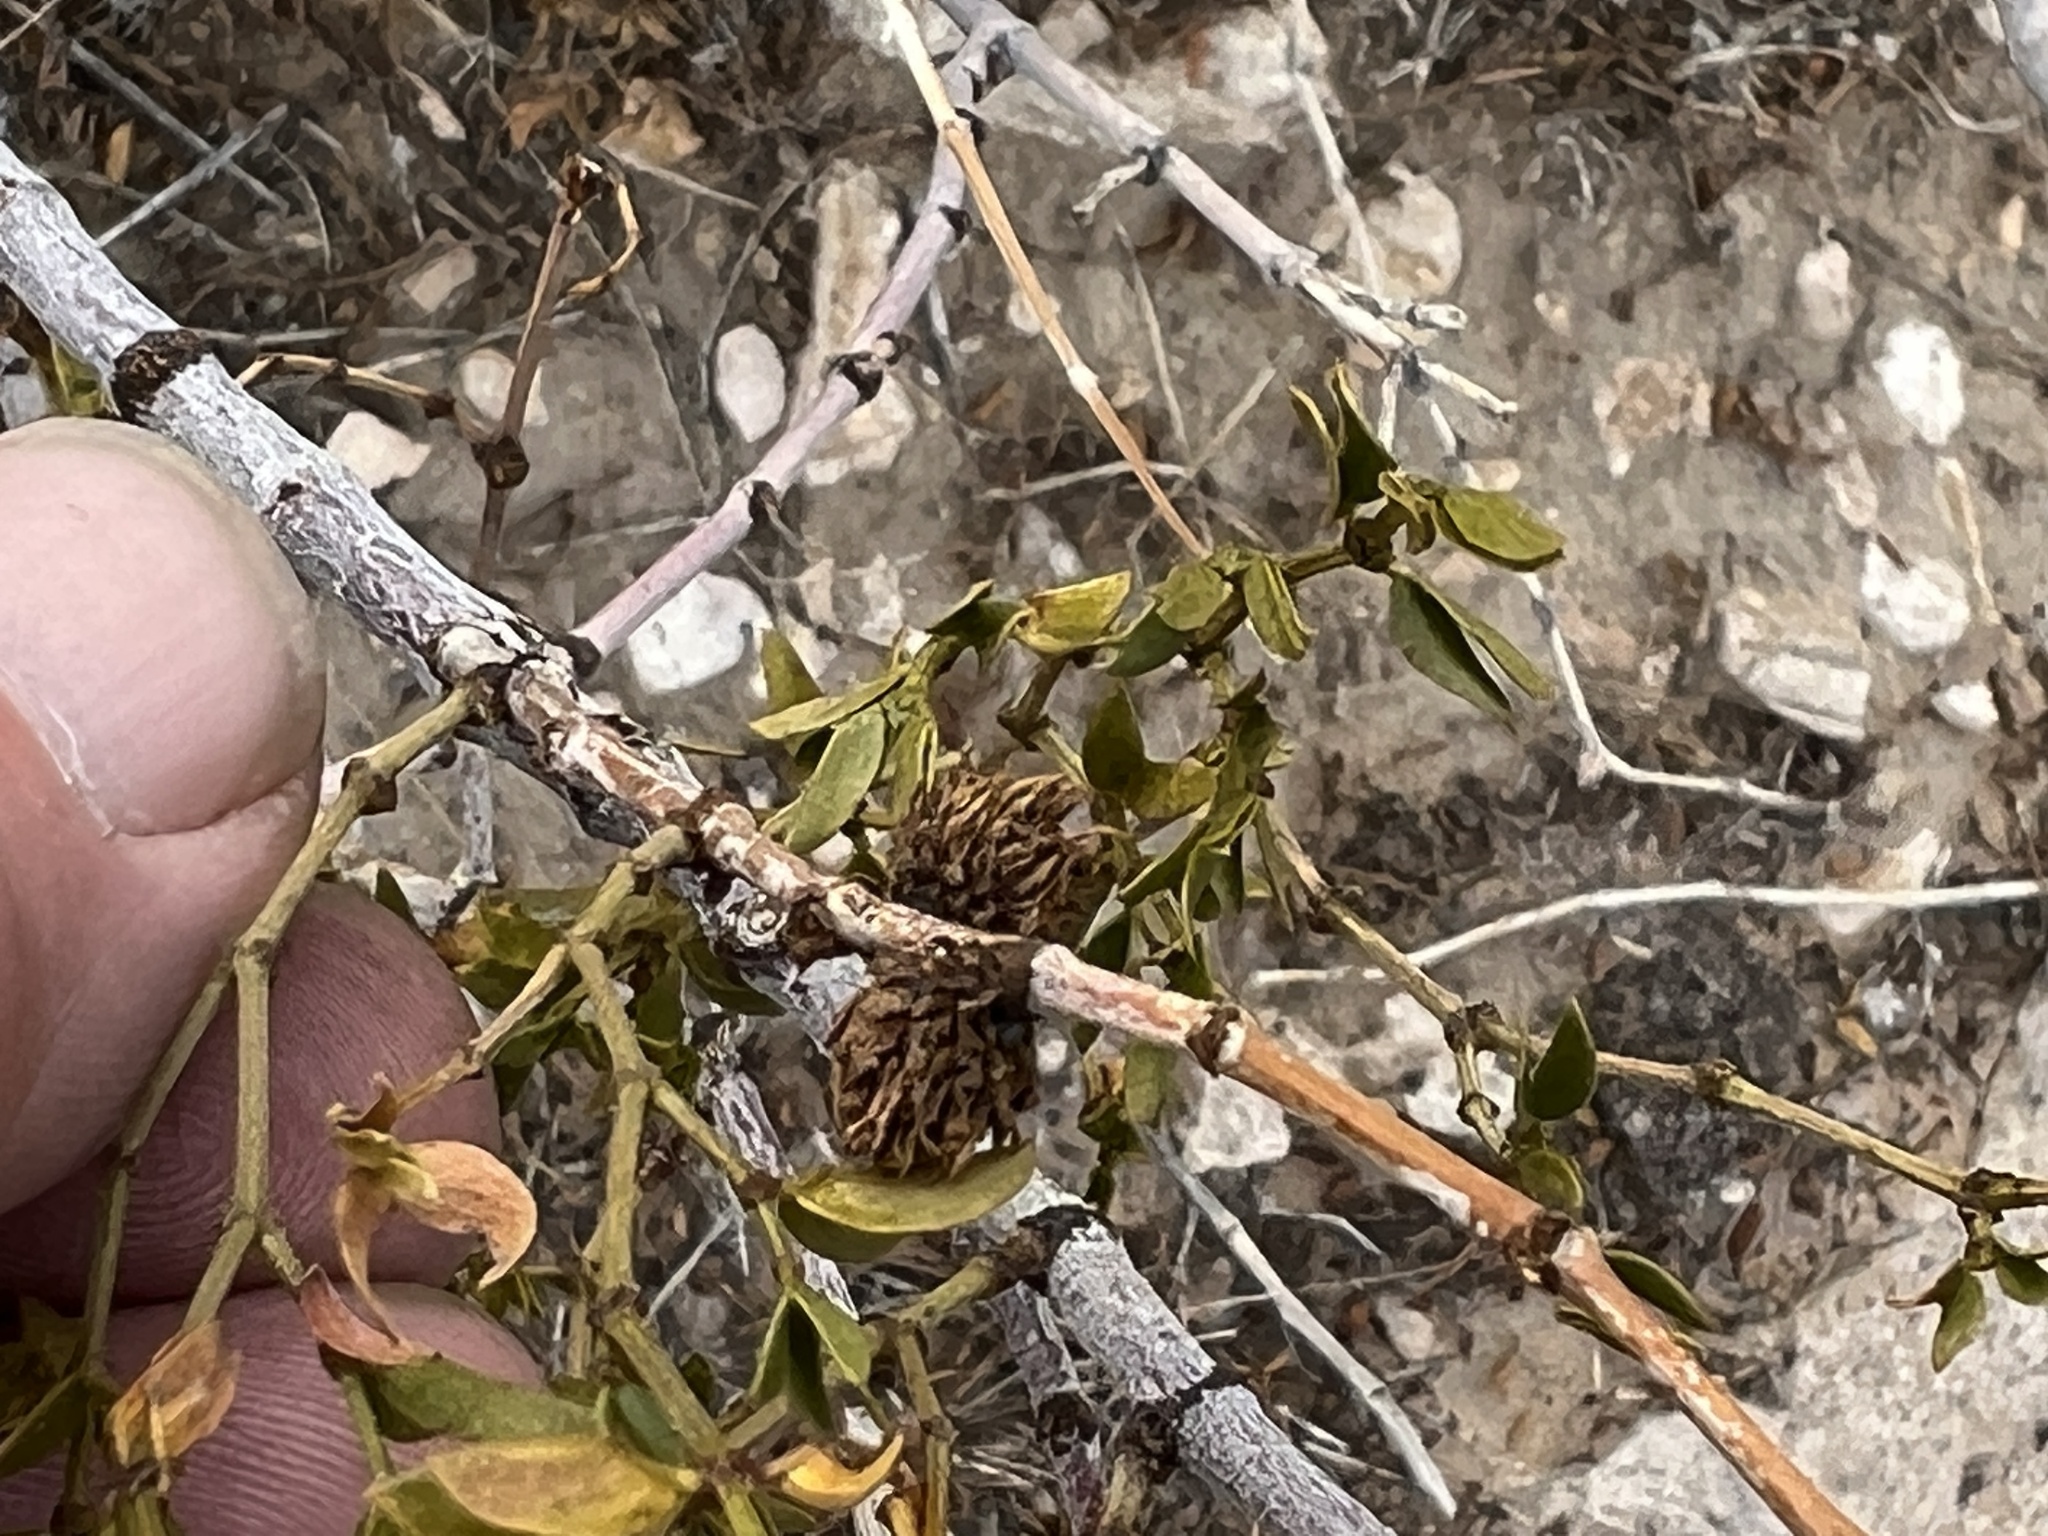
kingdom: Animalia
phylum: Arthropoda
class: Insecta
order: Diptera
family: Cecidomyiidae
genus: Asphondylia
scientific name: Asphondylia rosetta
